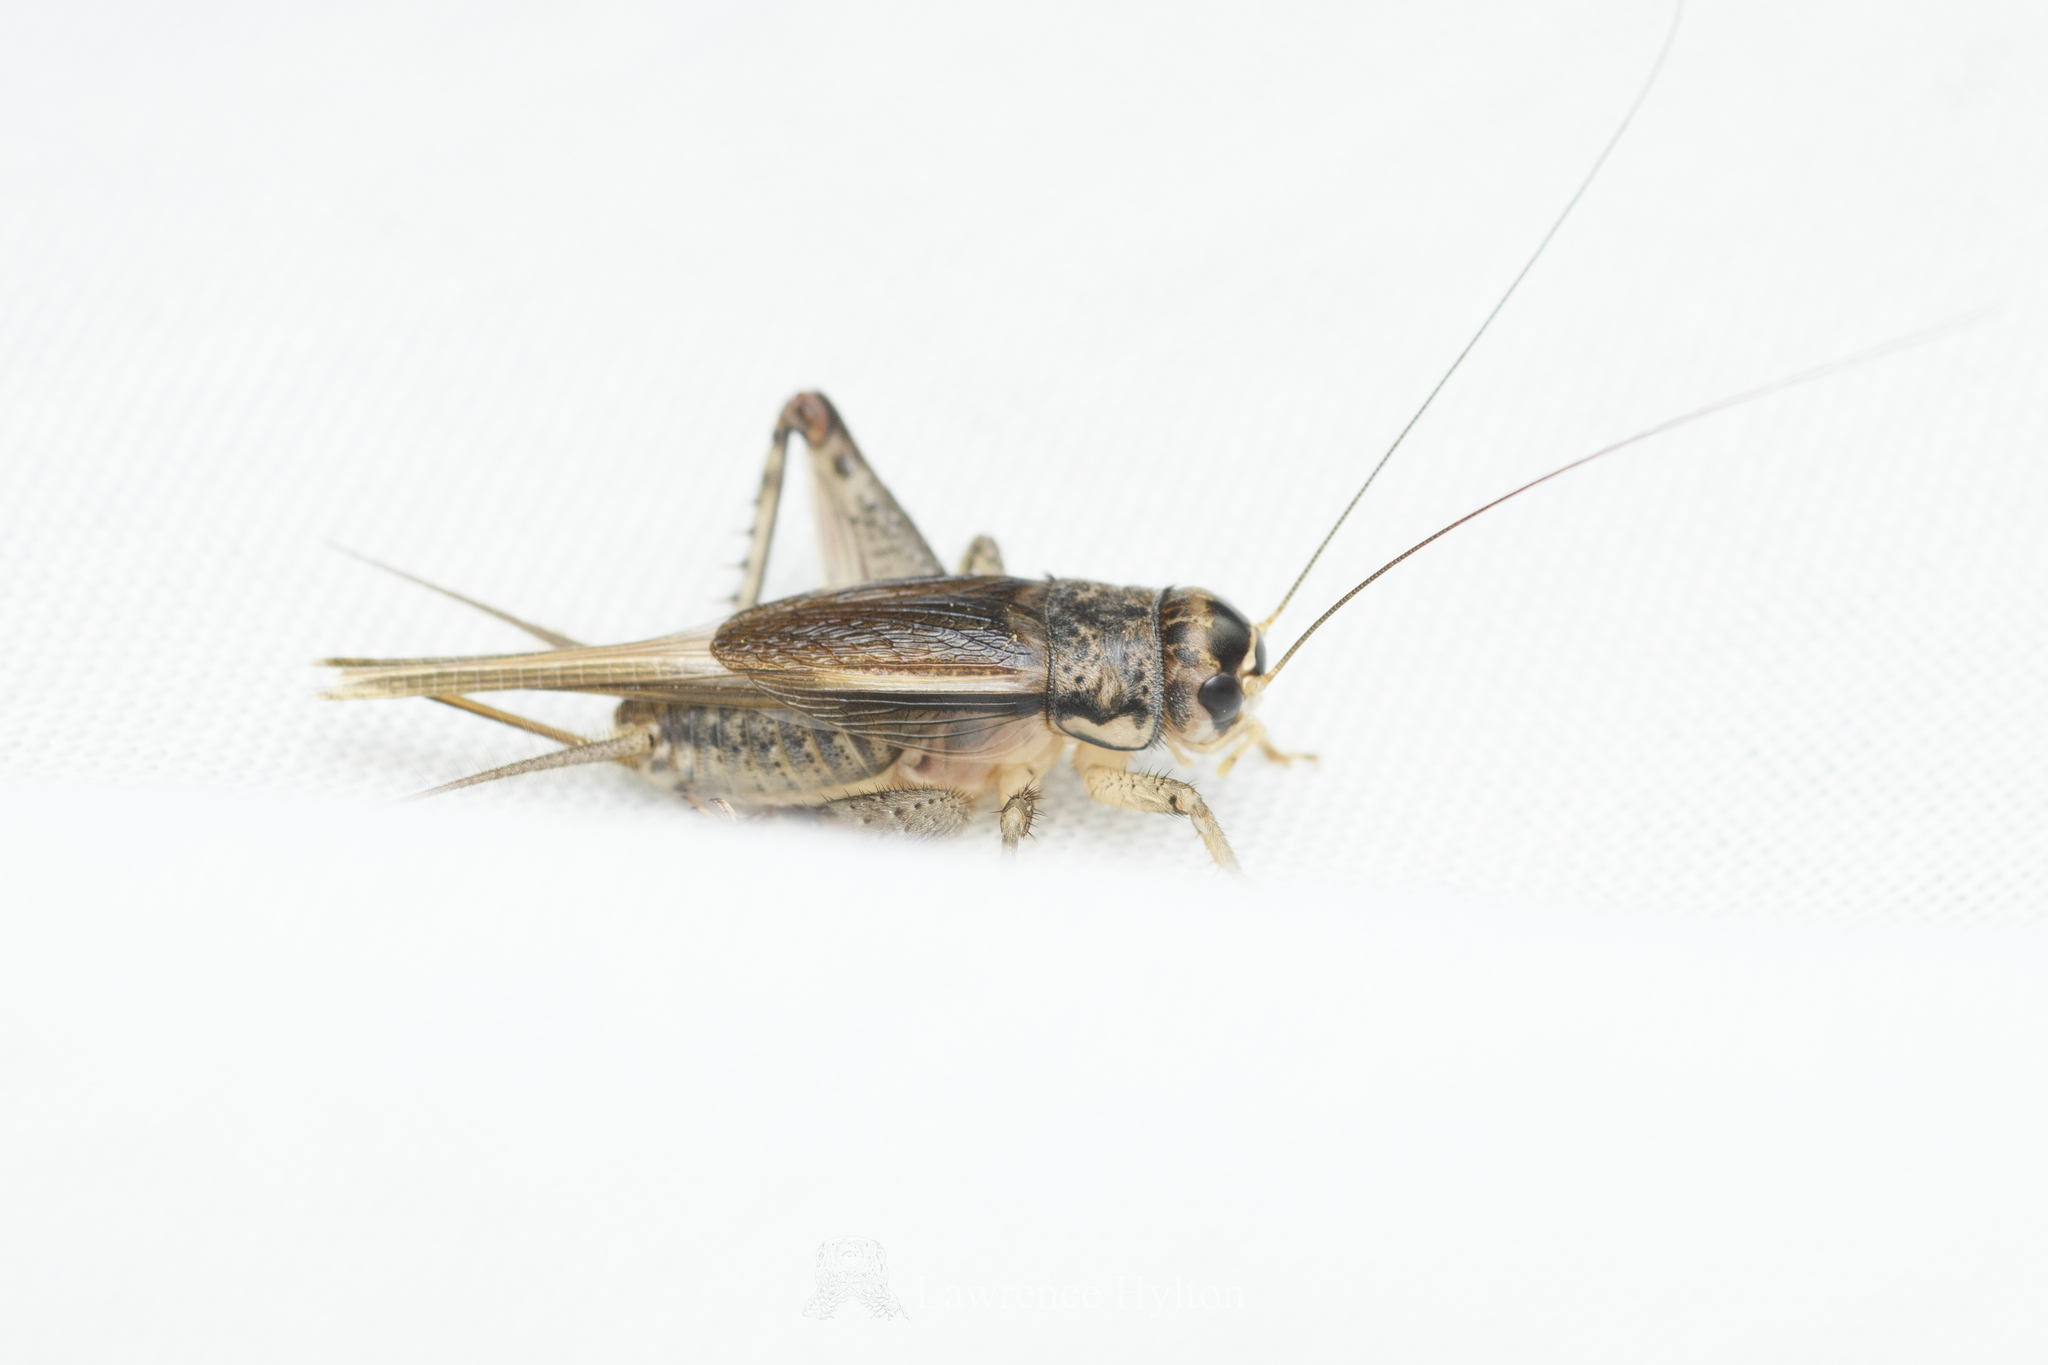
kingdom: Animalia
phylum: Arthropoda
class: Insecta
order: Orthoptera
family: Gryllidae
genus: Velarifictorus
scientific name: Velarifictorus aspersus
